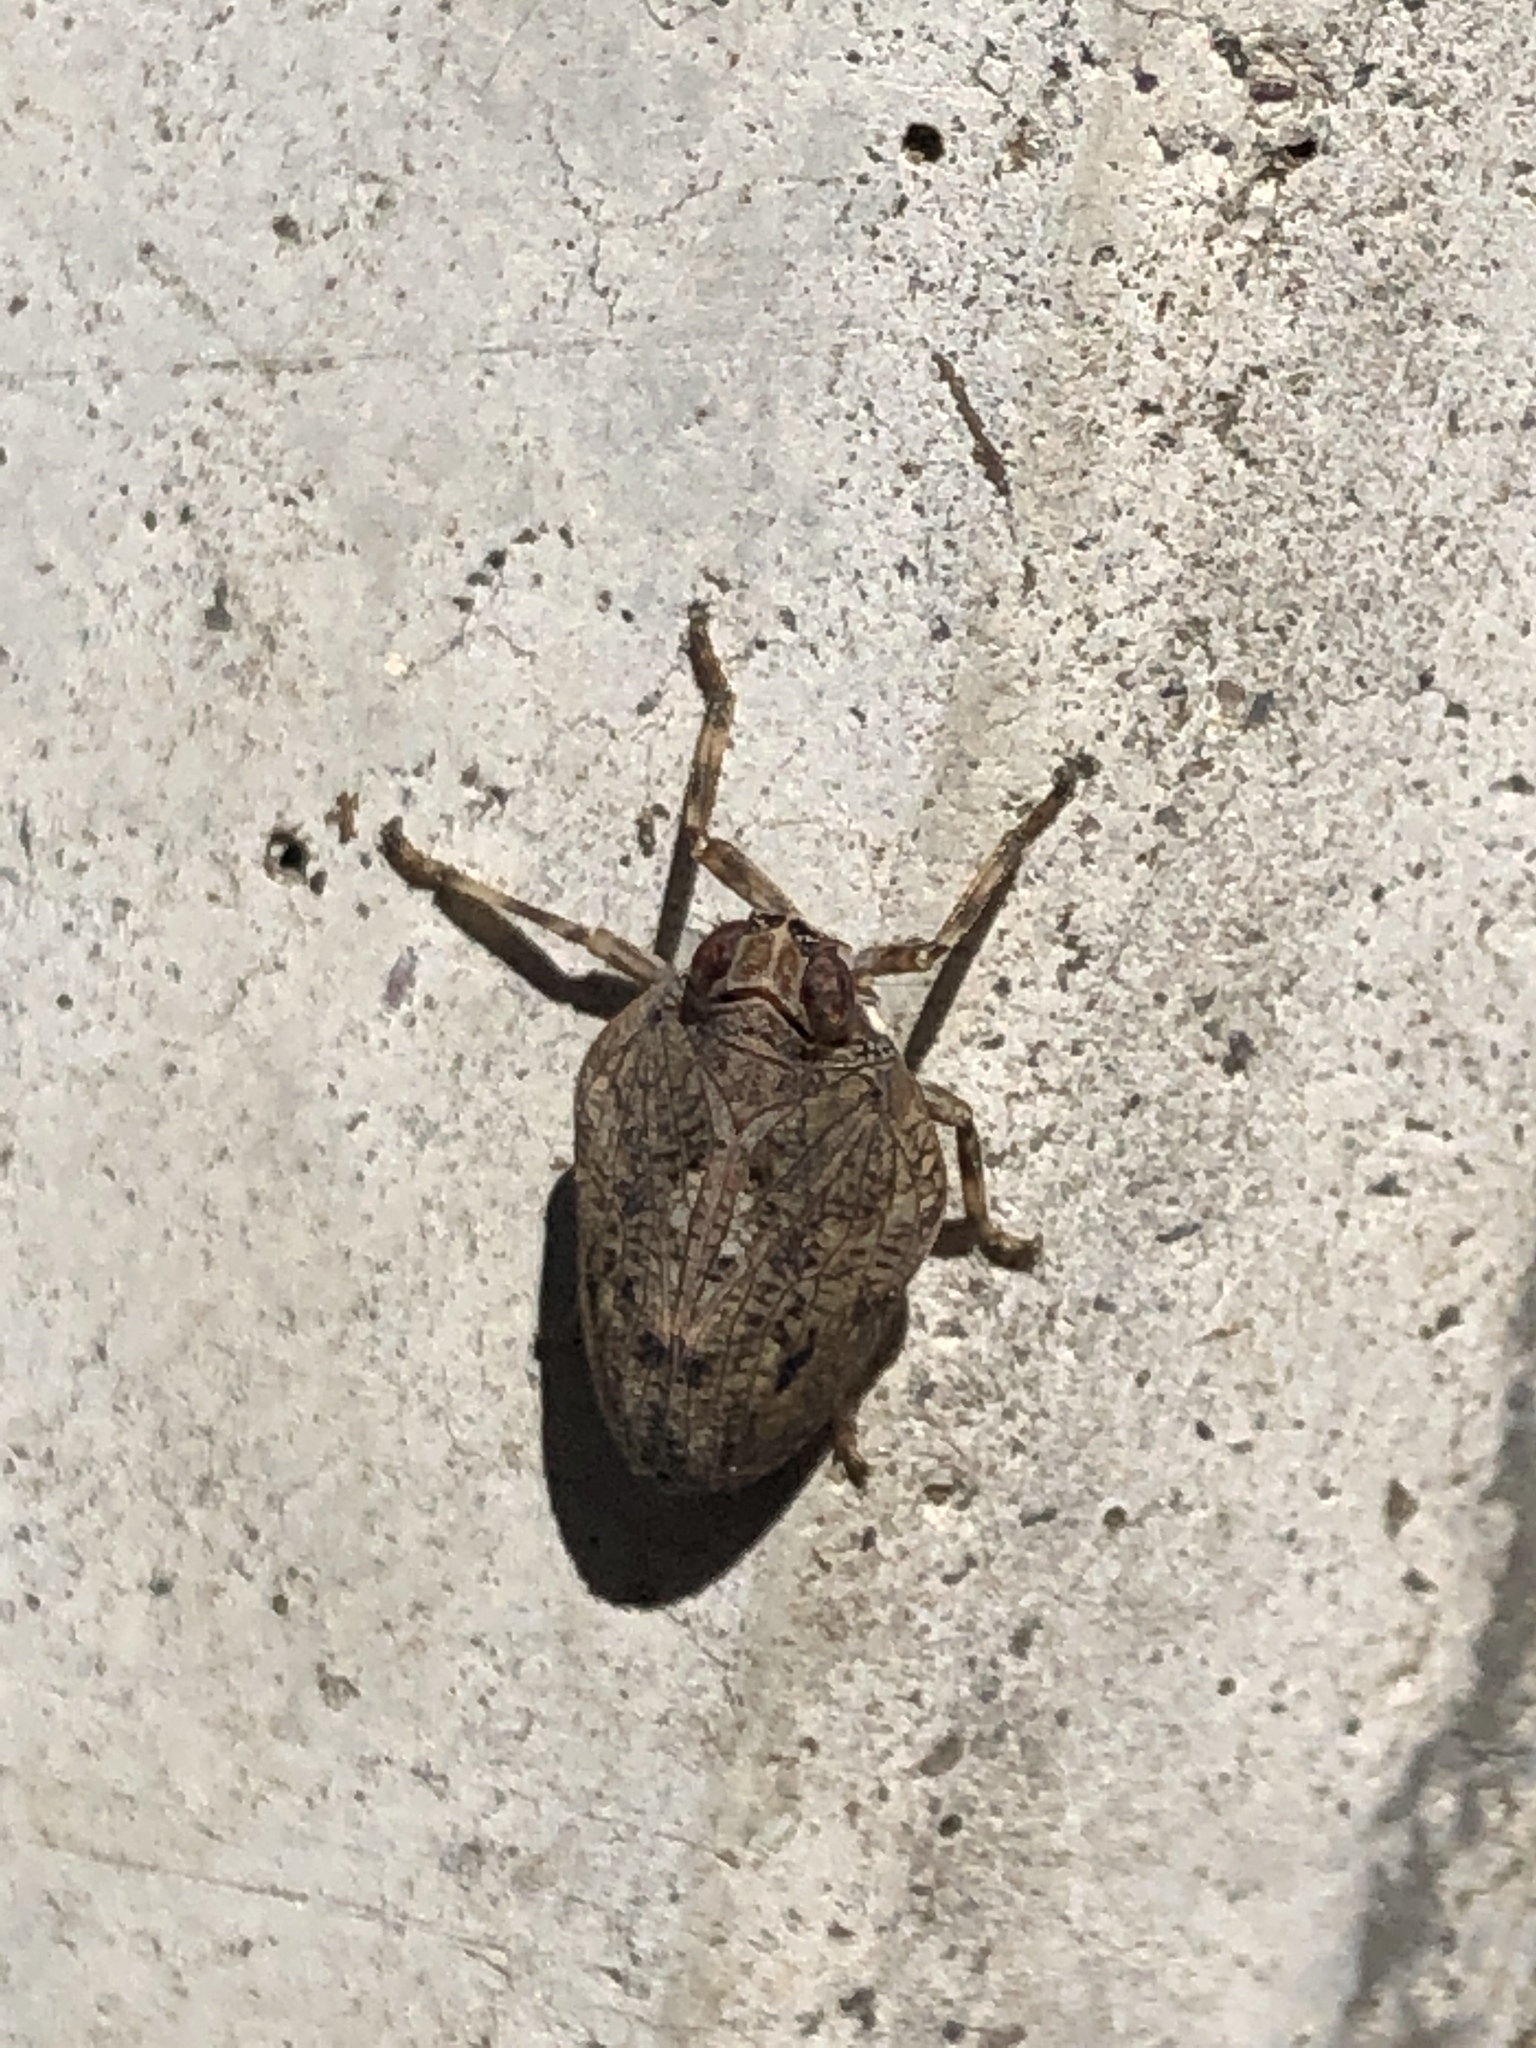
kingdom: Animalia
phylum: Arthropoda
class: Insecta
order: Hemiptera
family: Issidae
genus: Issus
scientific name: Issus coleoptratus
